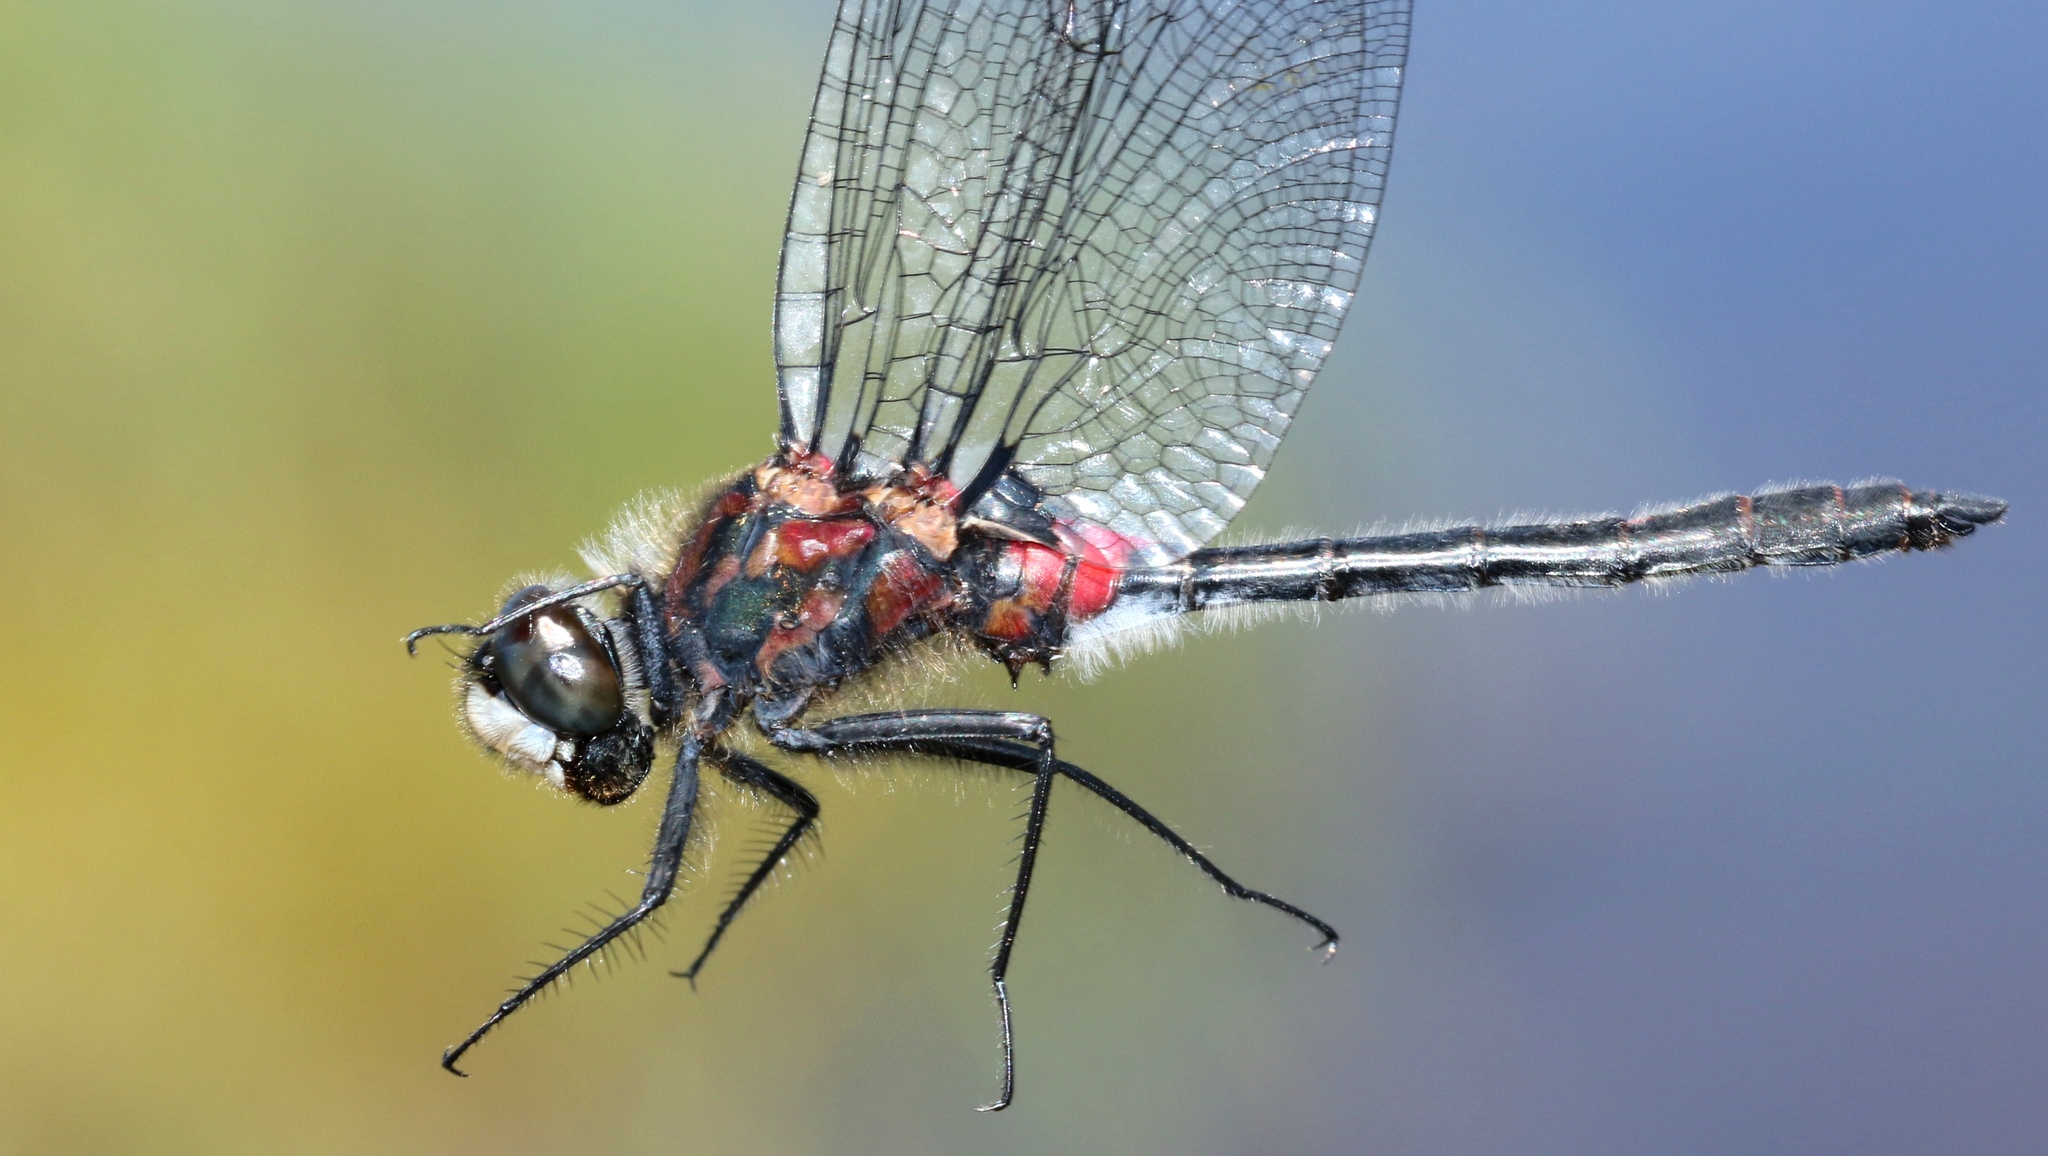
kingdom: Animalia
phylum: Arthropoda
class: Insecta
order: Odonata
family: Libellulidae
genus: Leucorrhinia
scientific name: Leucorrhinia glacialis
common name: Crimson-ringed whiteface
